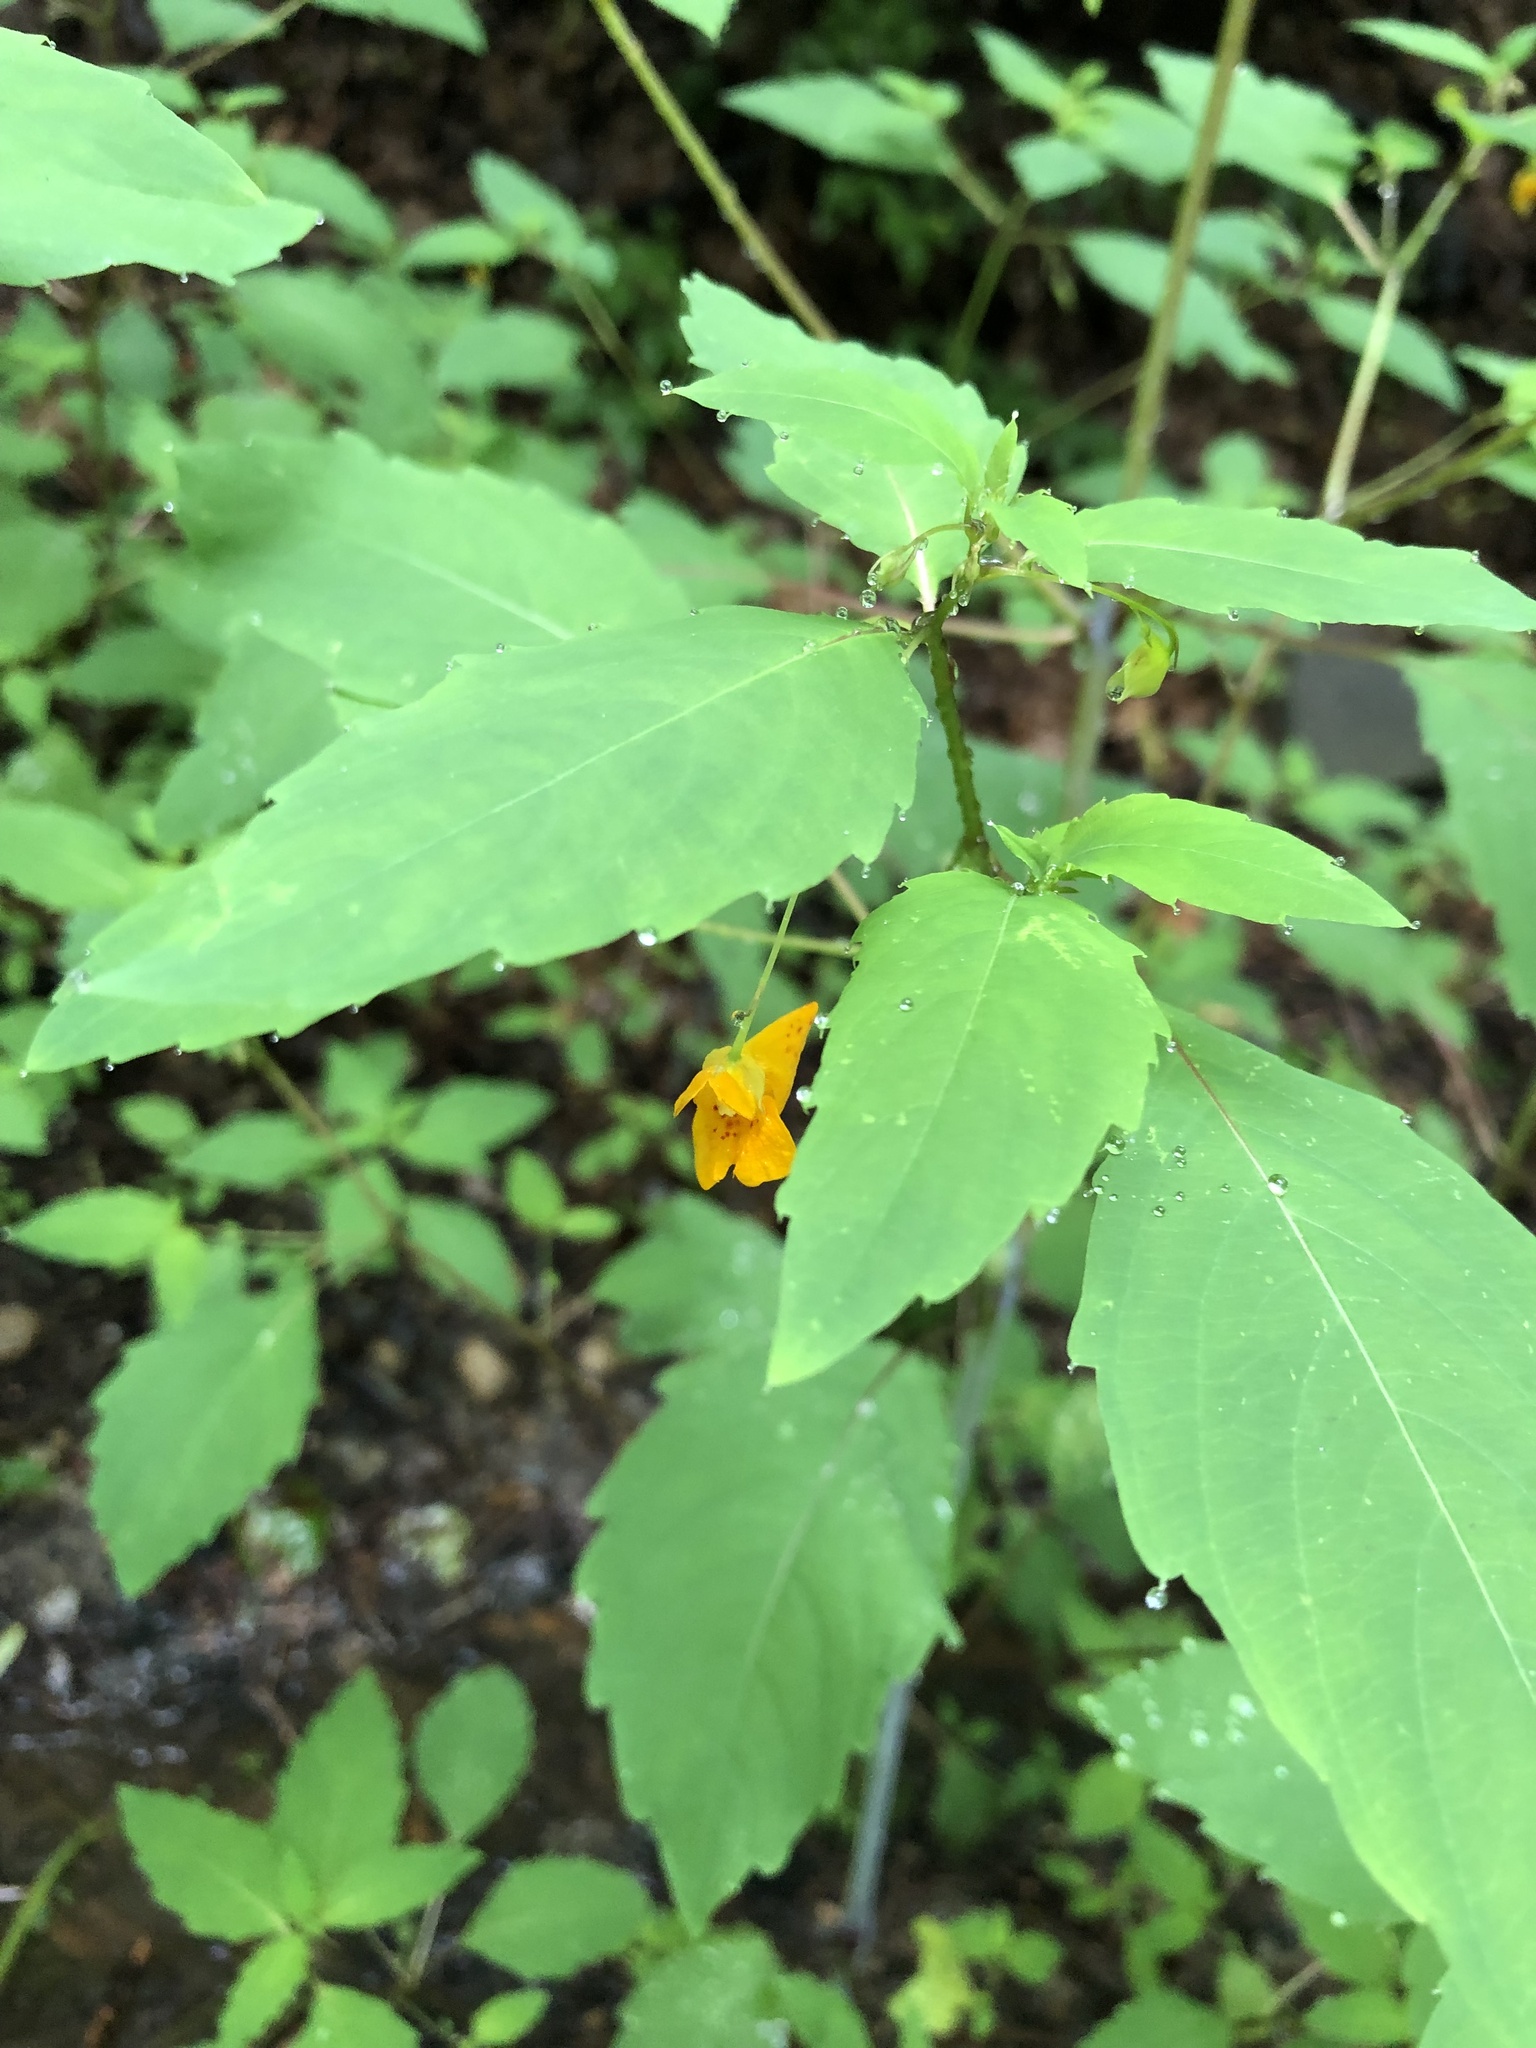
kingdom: Plantae
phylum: Tracheophyta
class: Magnoliopsida
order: Ericales
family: Balsaminaceae
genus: Impatiens
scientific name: Impatiens capensis
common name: Orange balsam
